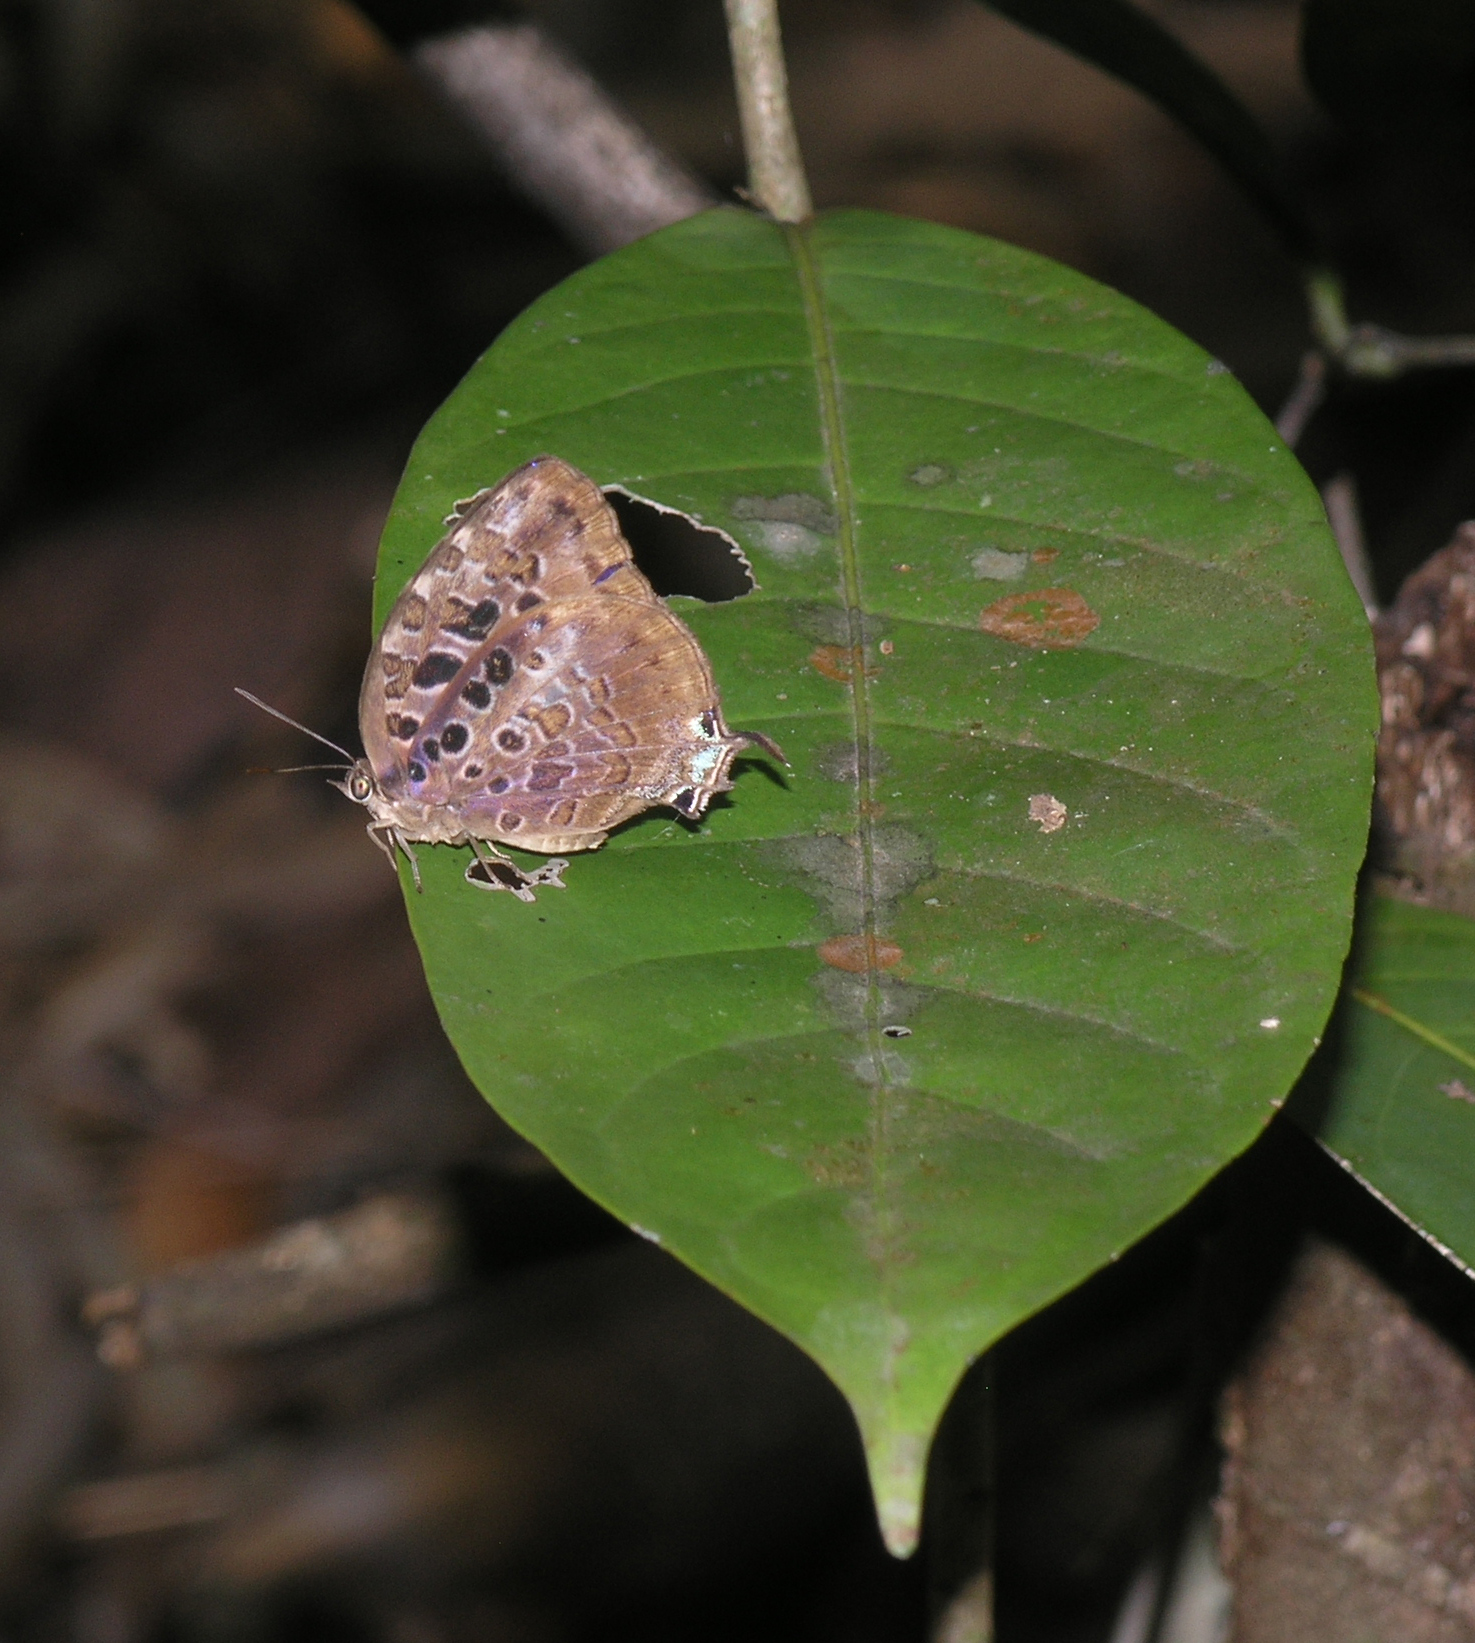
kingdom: Animalia
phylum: Arthropoda
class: Insecta
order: Lepidoptera
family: Lycaenidae
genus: Arhopala
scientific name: Arhopala anthelus
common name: Bushblue
